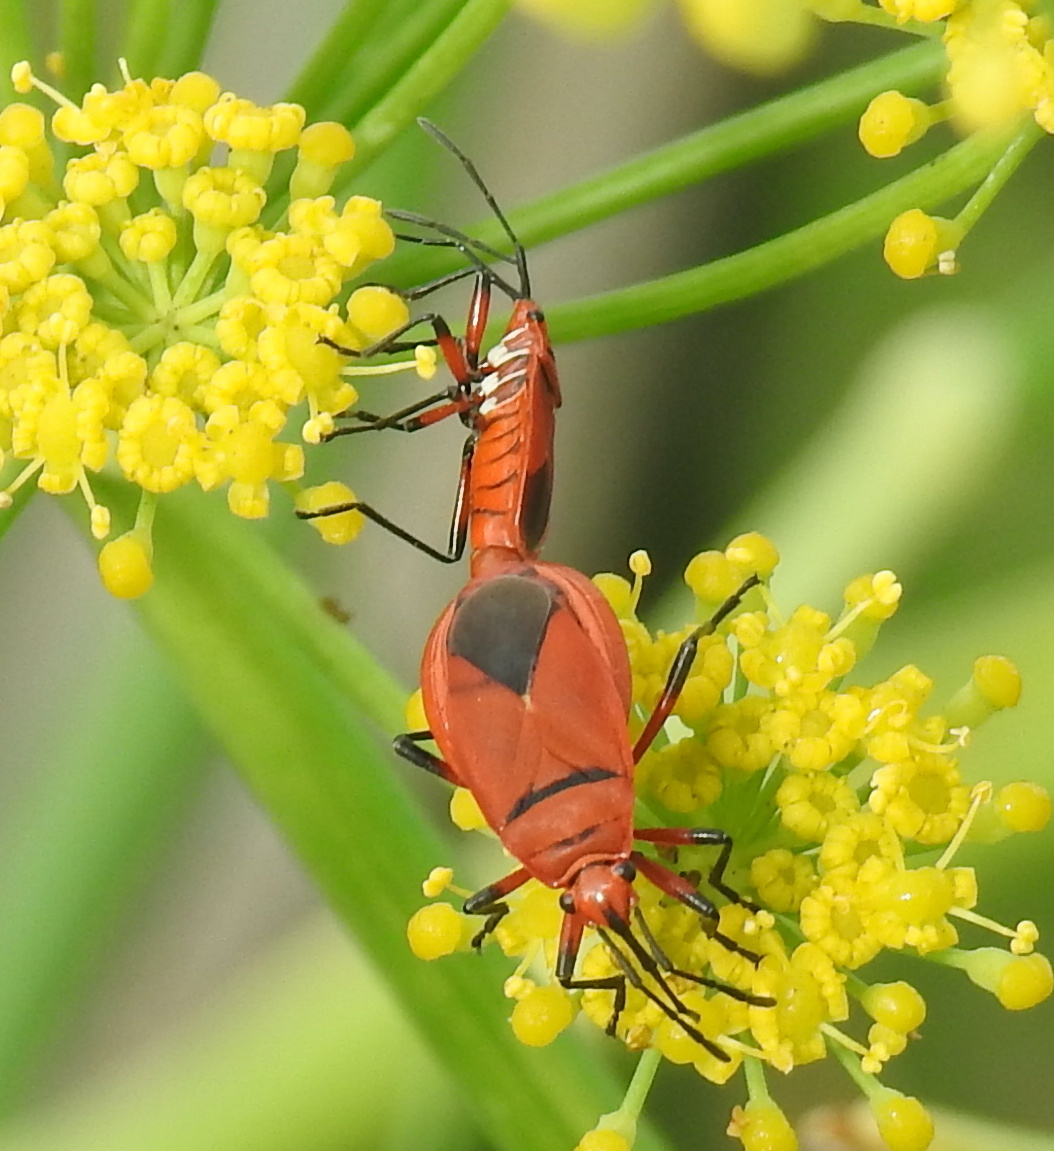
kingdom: Animalia
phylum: Arthropoda
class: Insecta
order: Hemiptera
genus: Cenaeus
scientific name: Cenaeus
